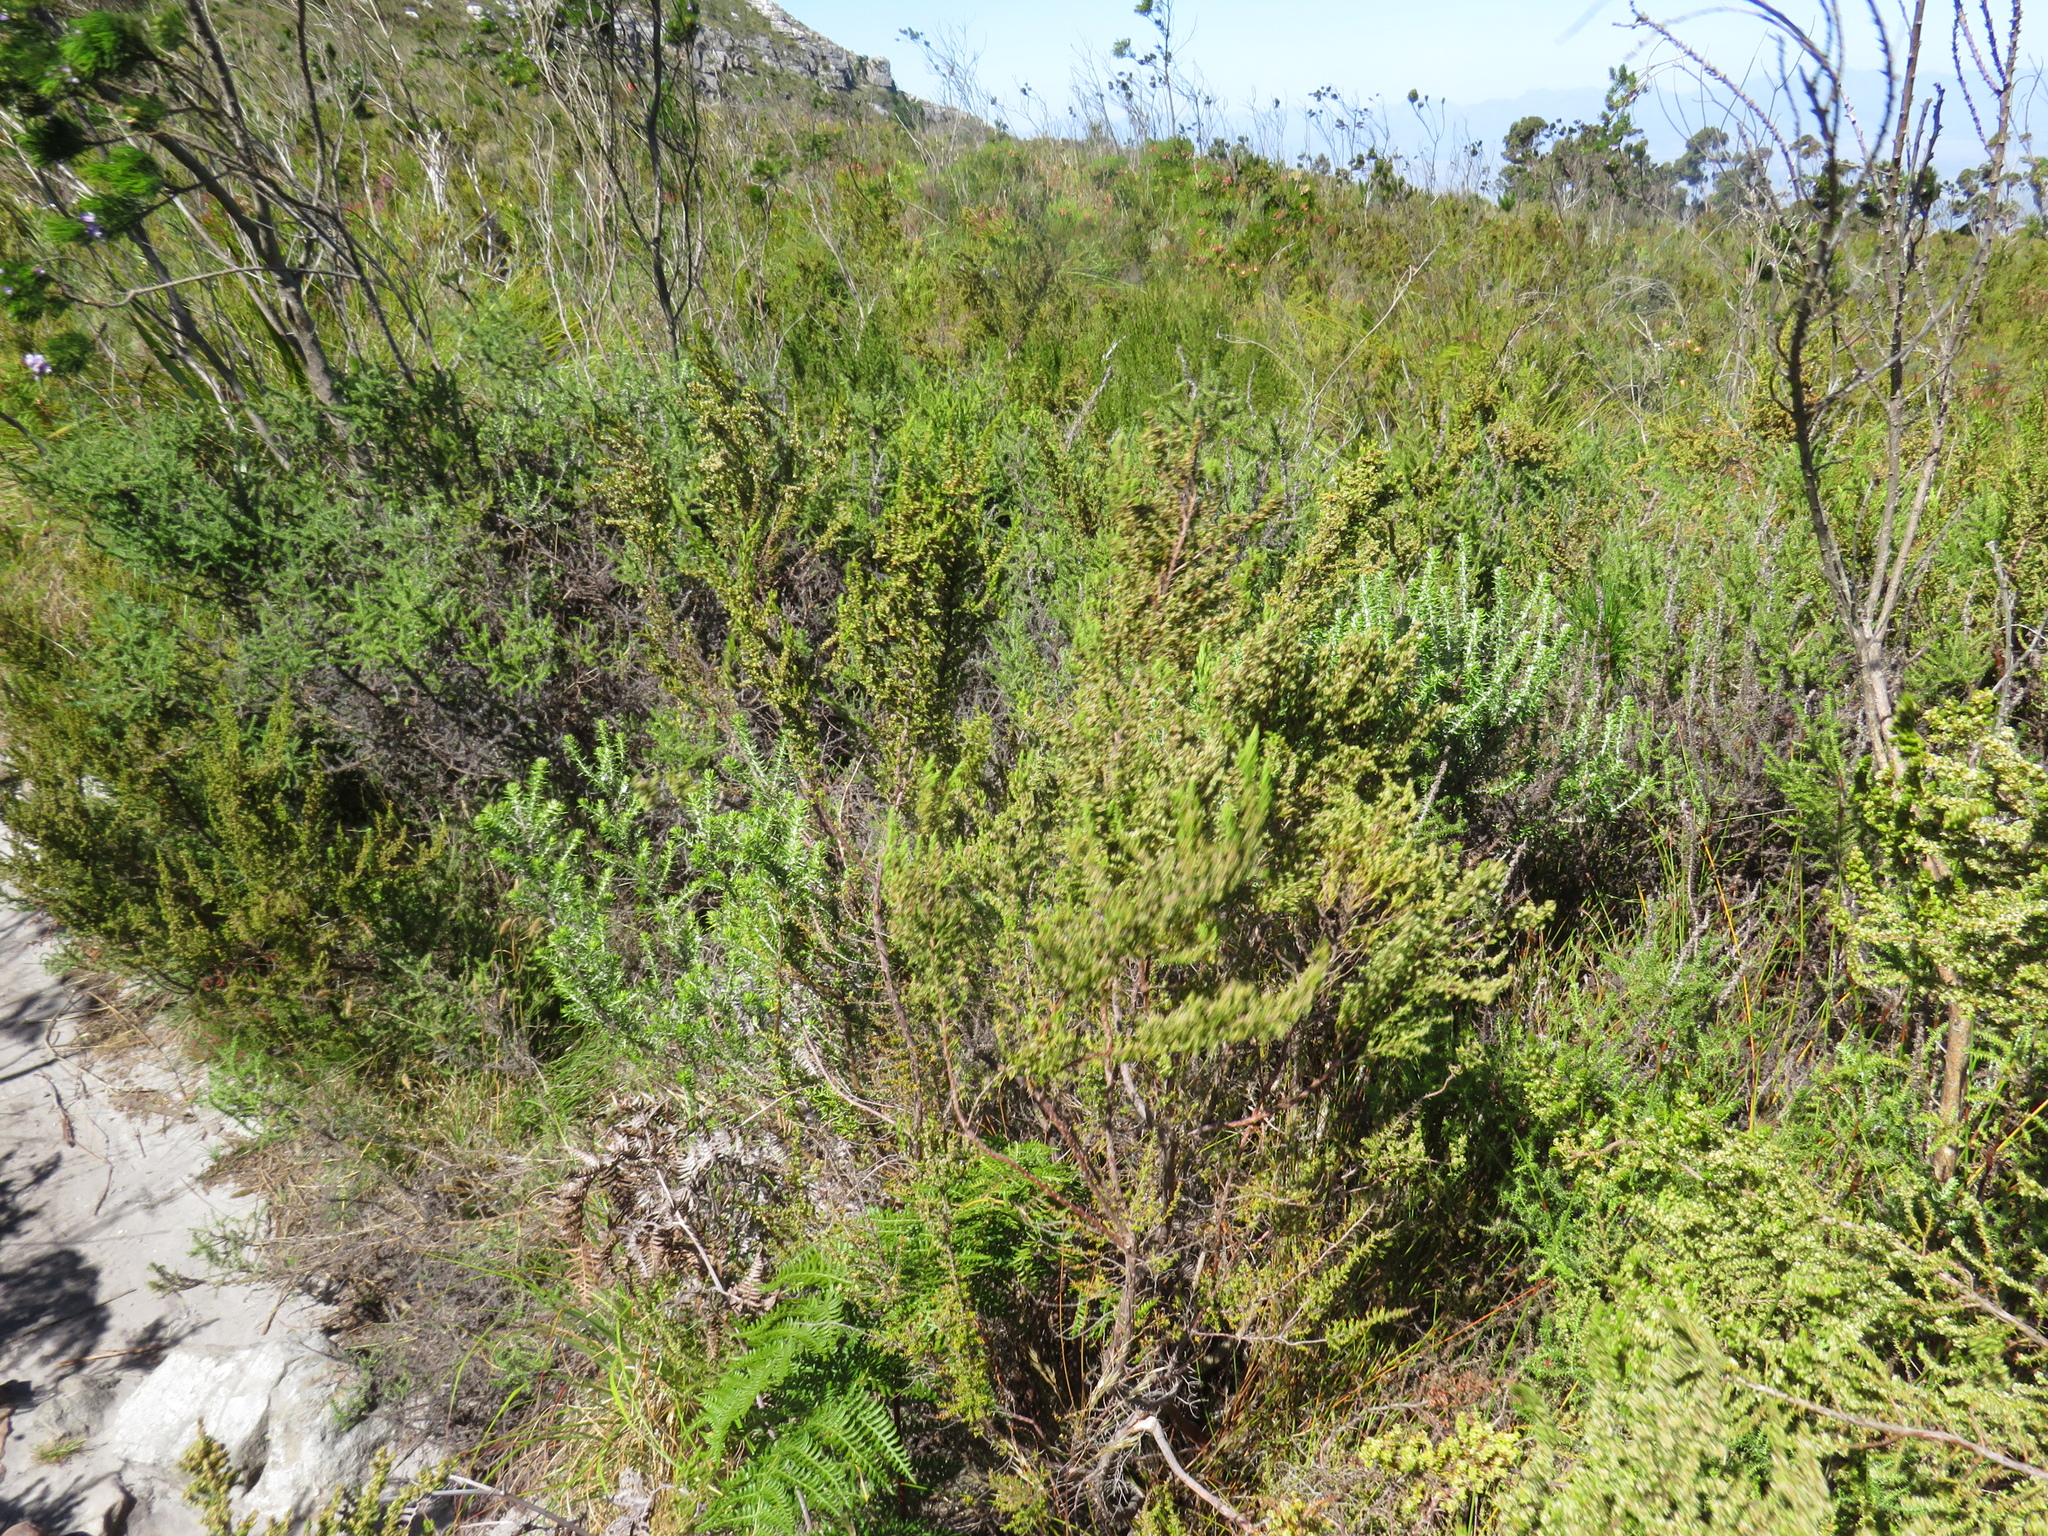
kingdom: Plantae
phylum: Tracheophyta
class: Magnoliopsida
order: Ericales
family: Ericaceae
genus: Erica
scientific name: Erica muscosa
